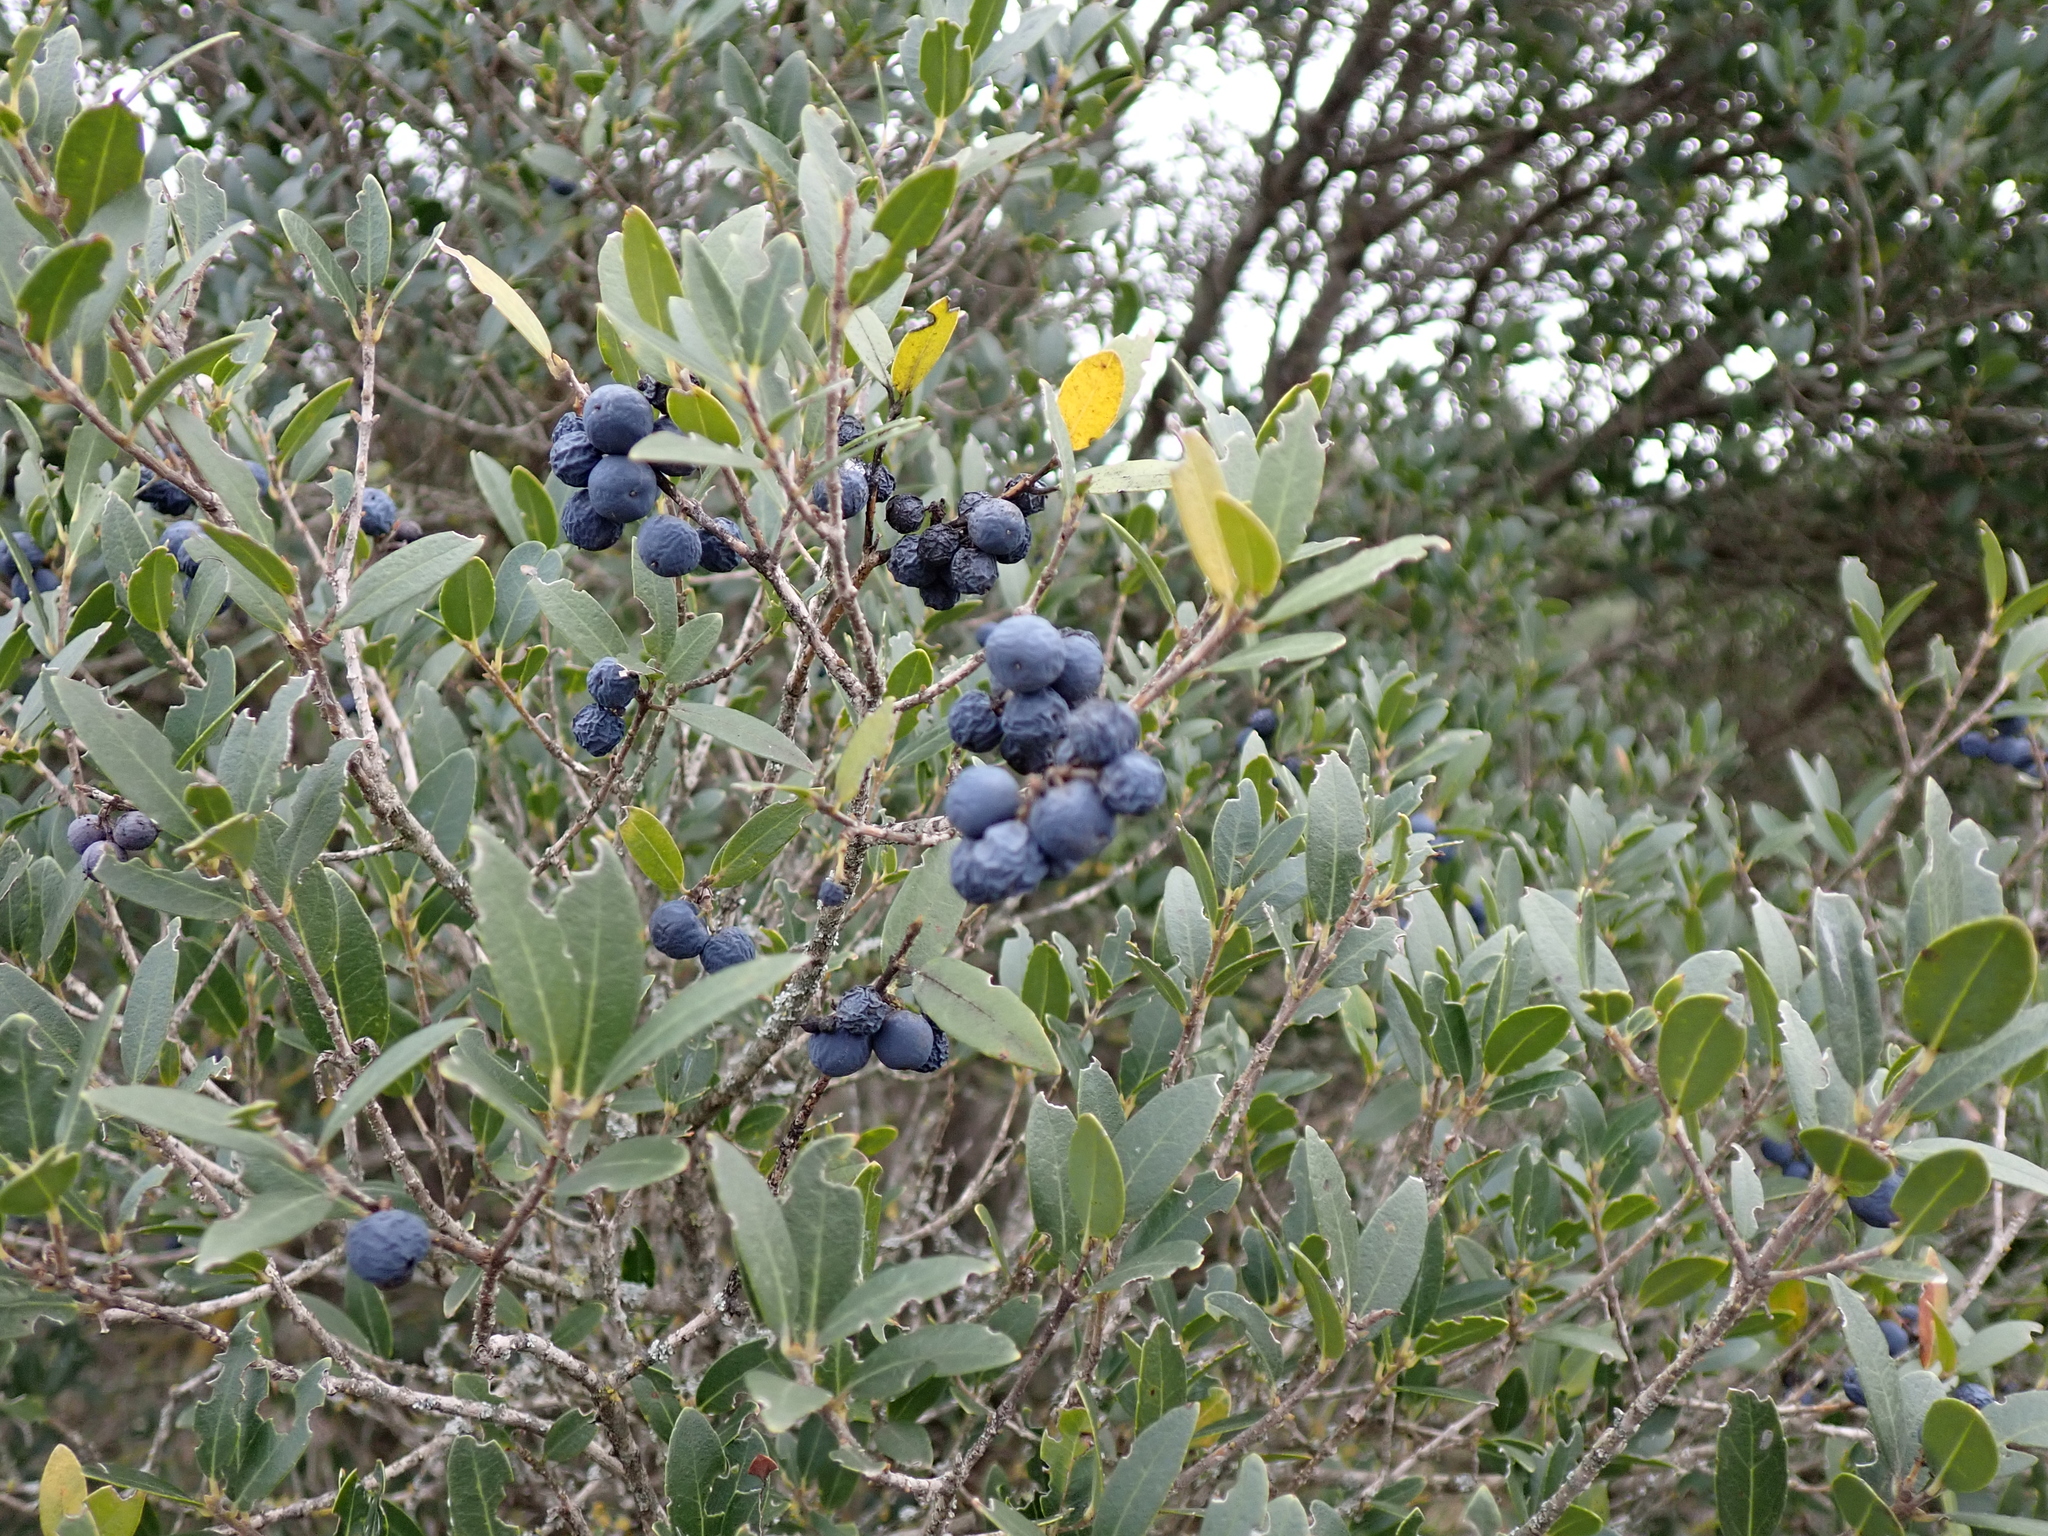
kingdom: Plantae
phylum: Tracheophyta
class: Magnoliopsida
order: Lamiales
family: Oleaceae
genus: Phillyrea
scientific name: Phillyrea latifolia
